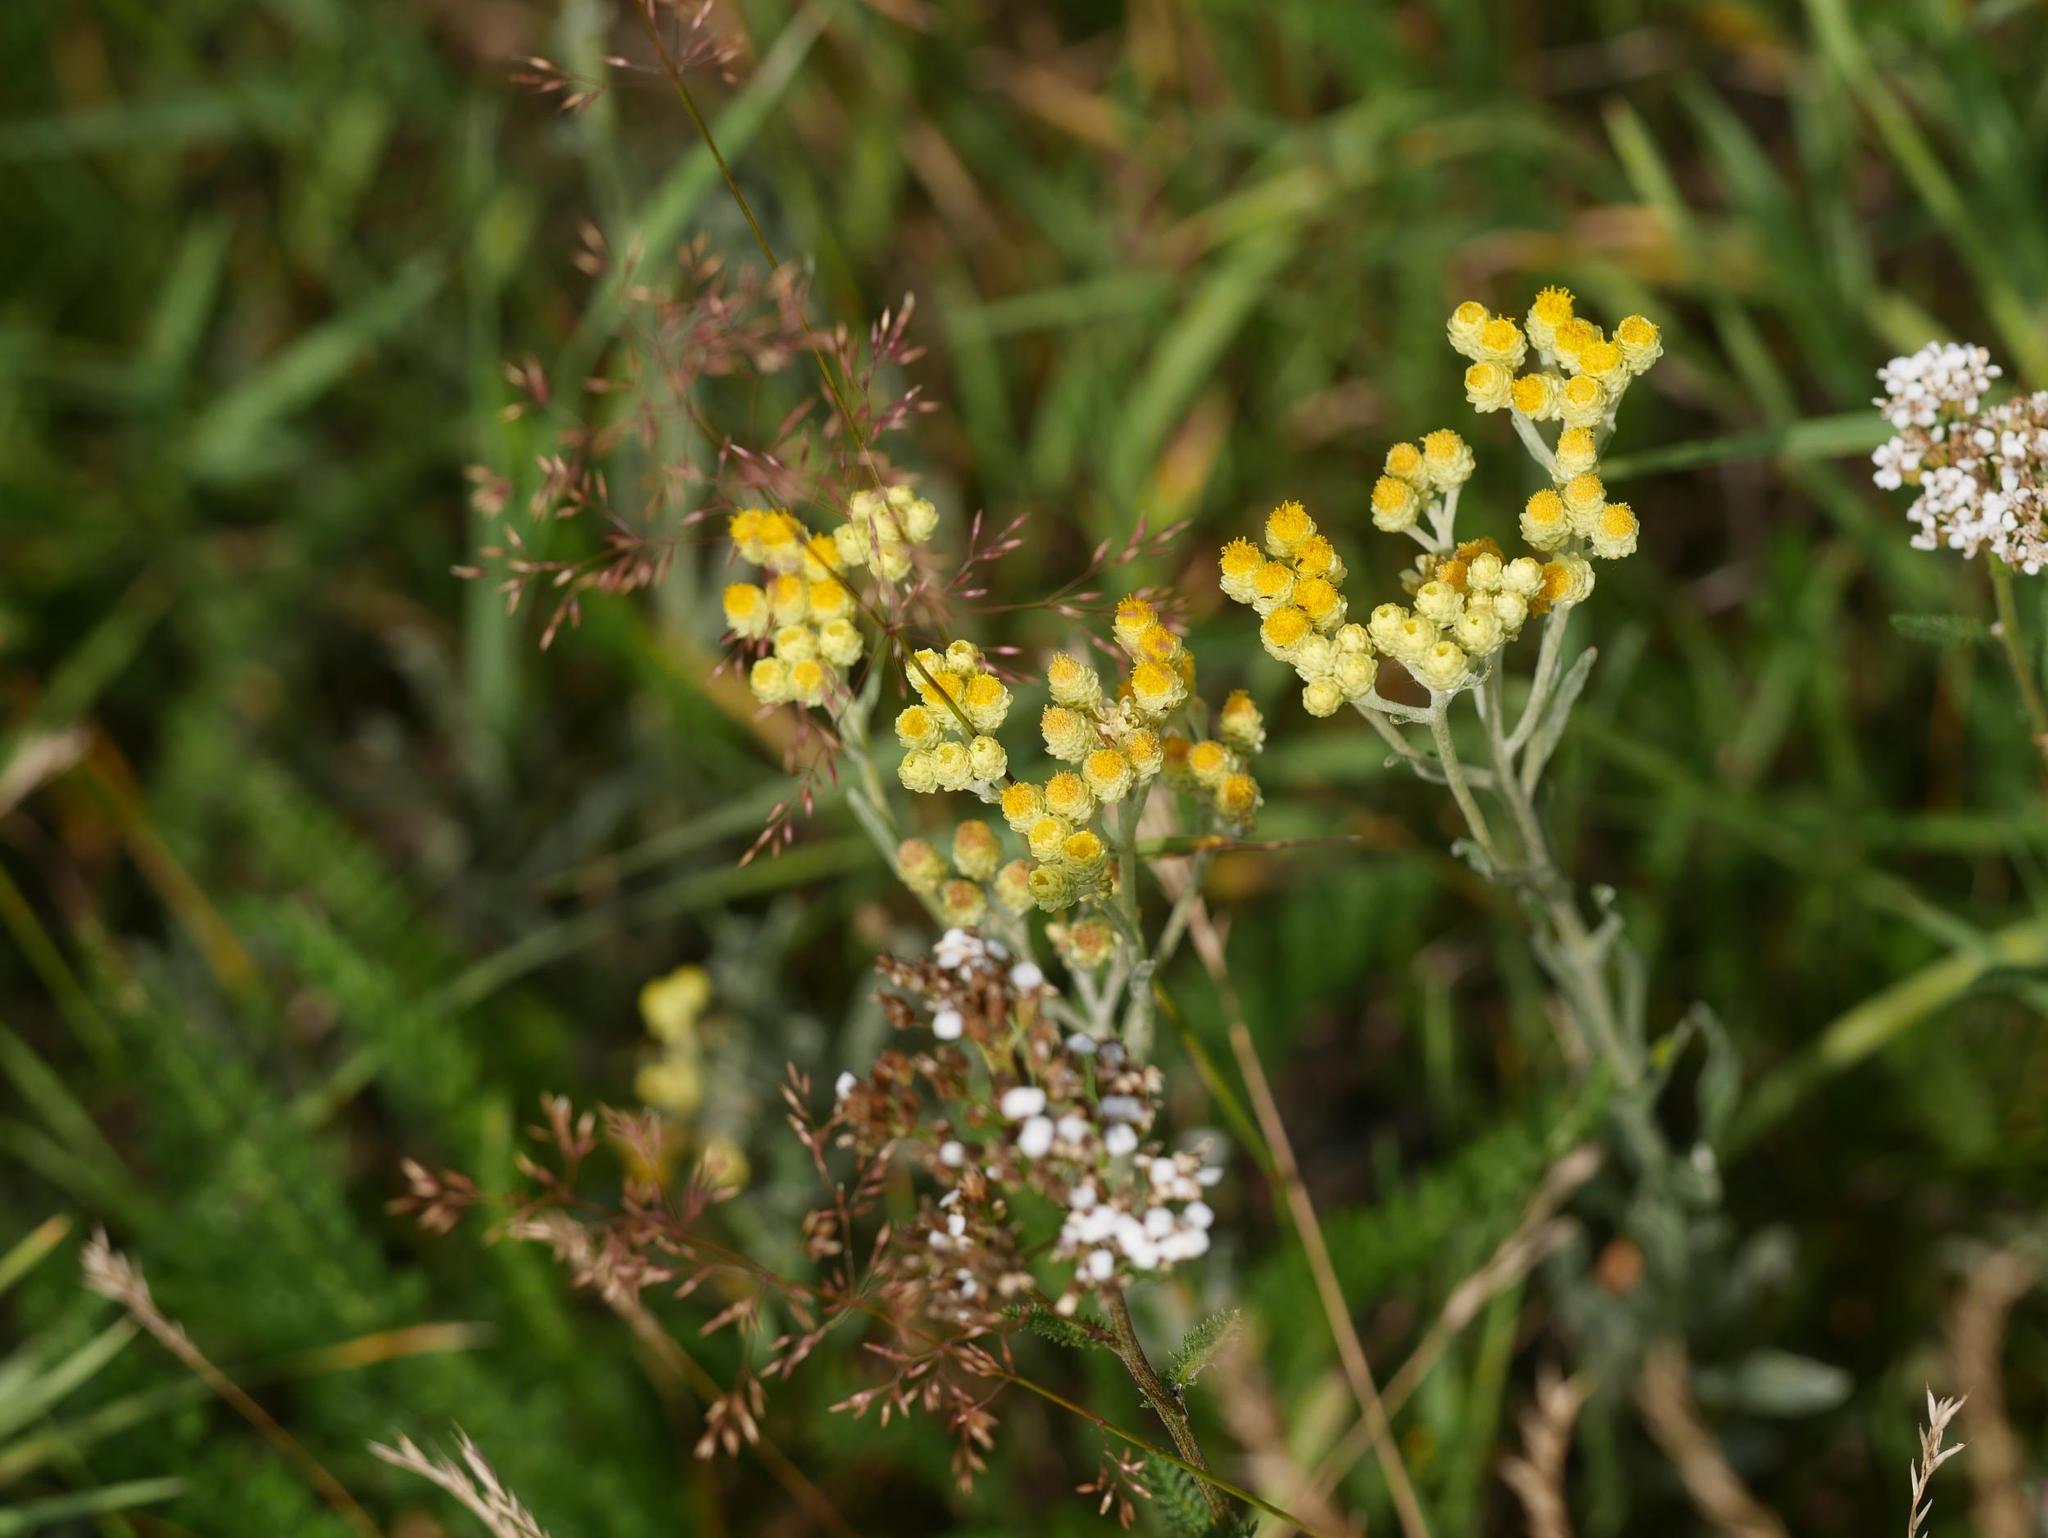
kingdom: Plantae
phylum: Tracheophyta
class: Magnoliopsida
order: Asterales
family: Asteraceae
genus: Helichrysum
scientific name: Helichrysum arenarium
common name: Strawflower
